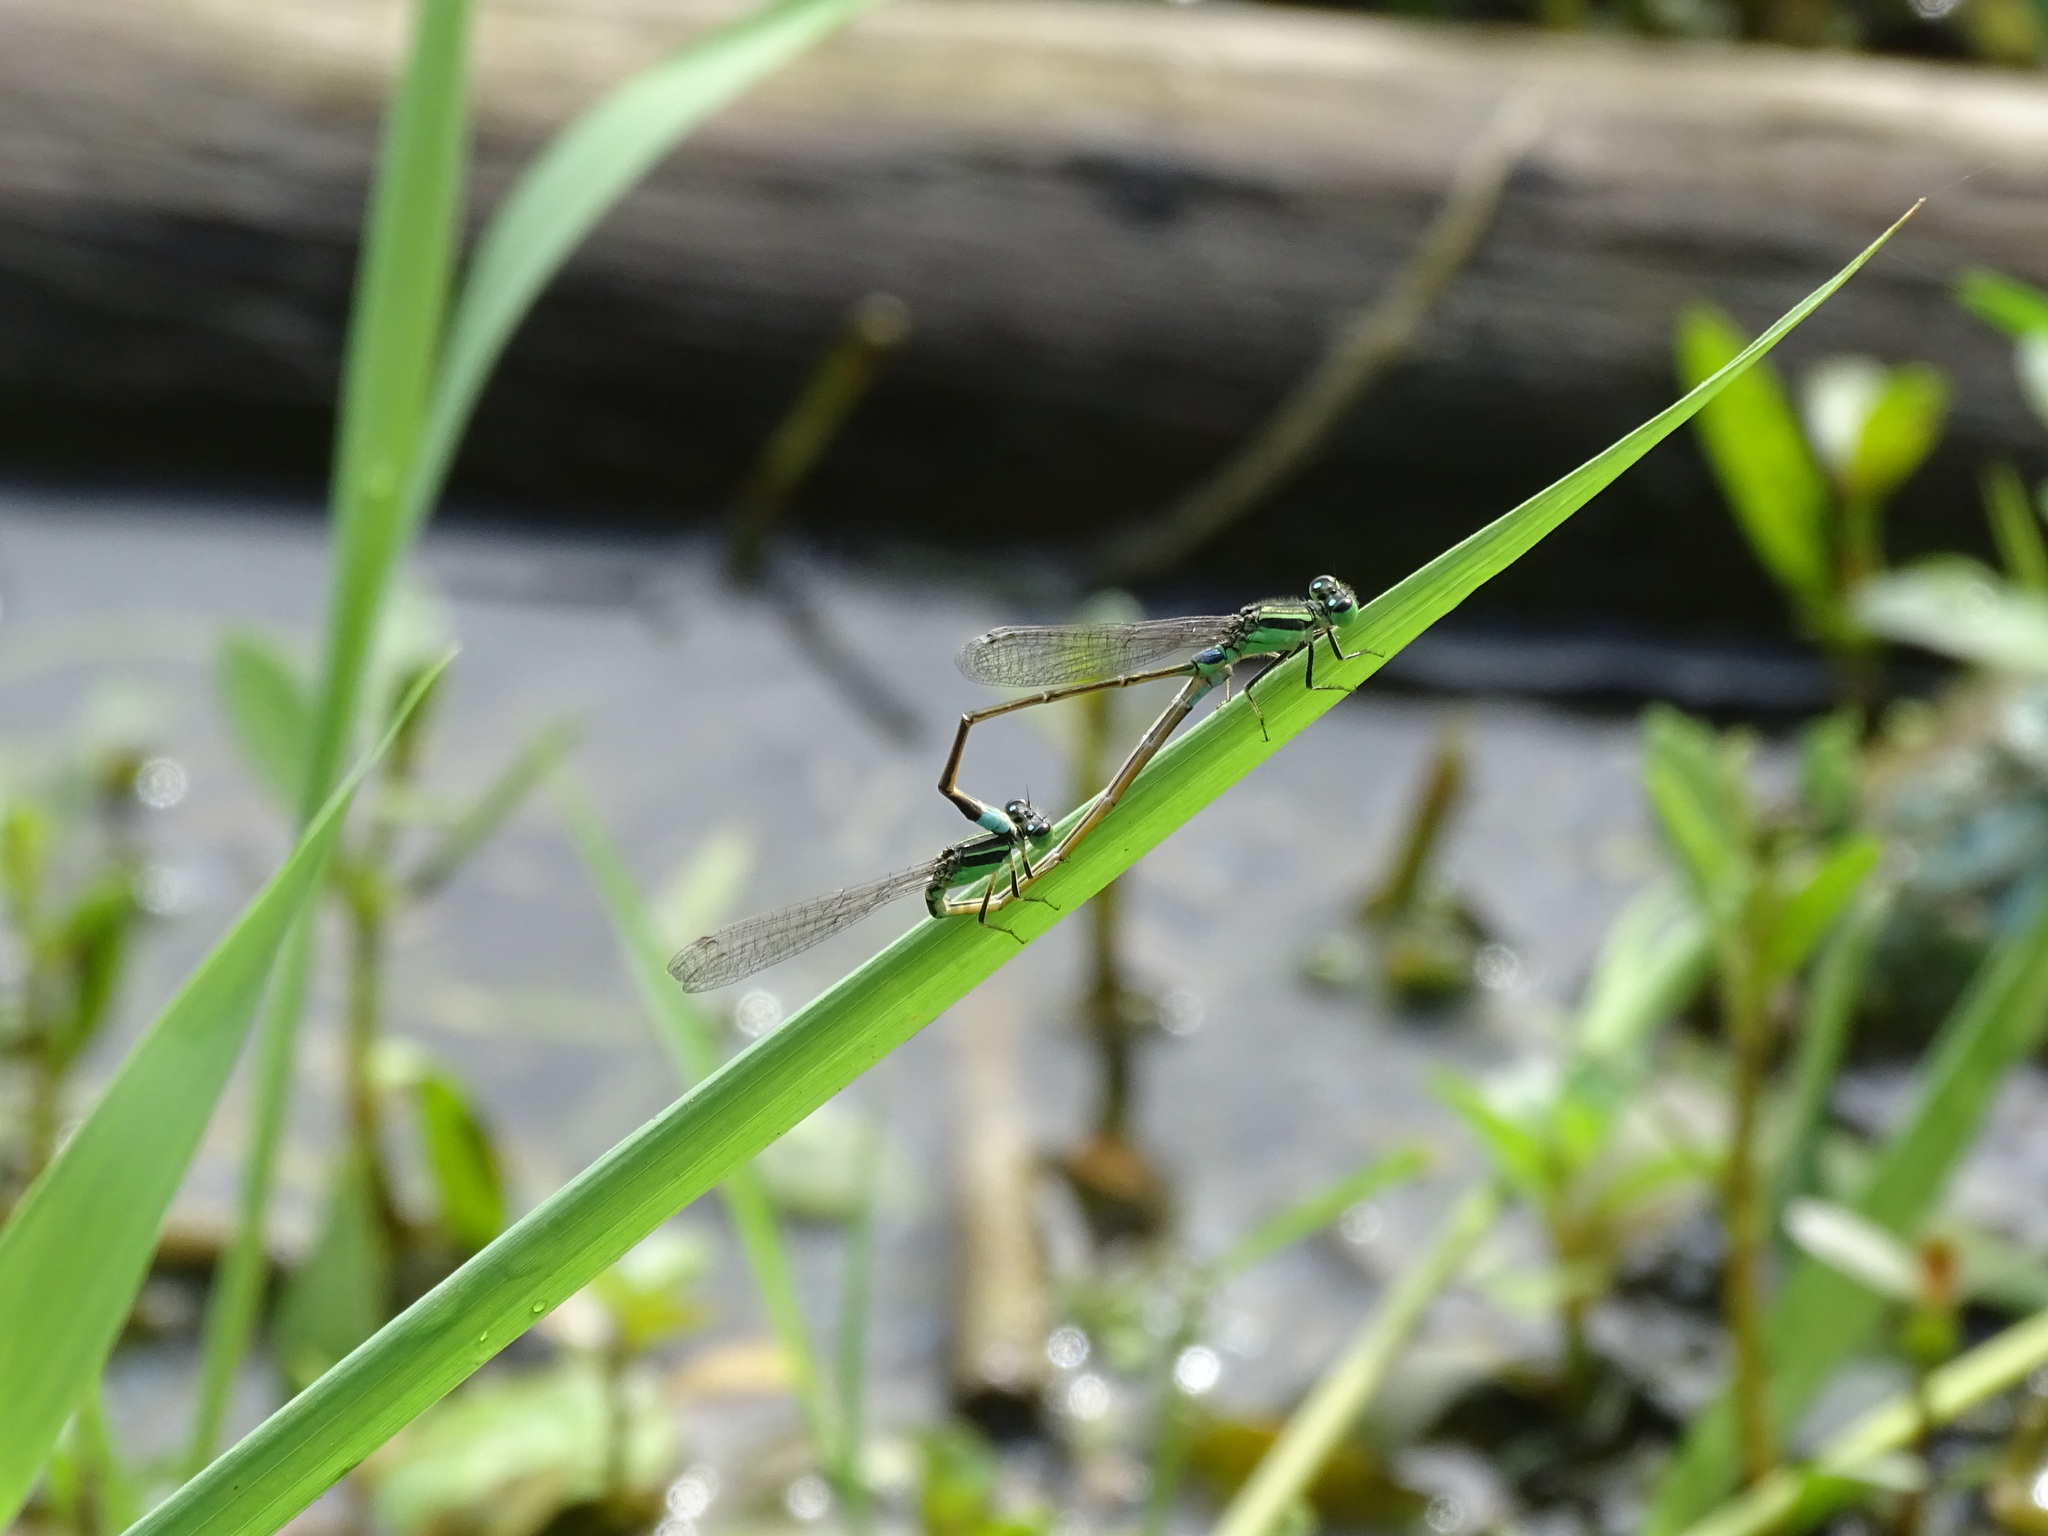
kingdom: Animalia
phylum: Arthropoda
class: Insecta
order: Odonata
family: Coenagrionidae
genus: Ischnura
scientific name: Ischnura senegalensis
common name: Tropical bluetail
